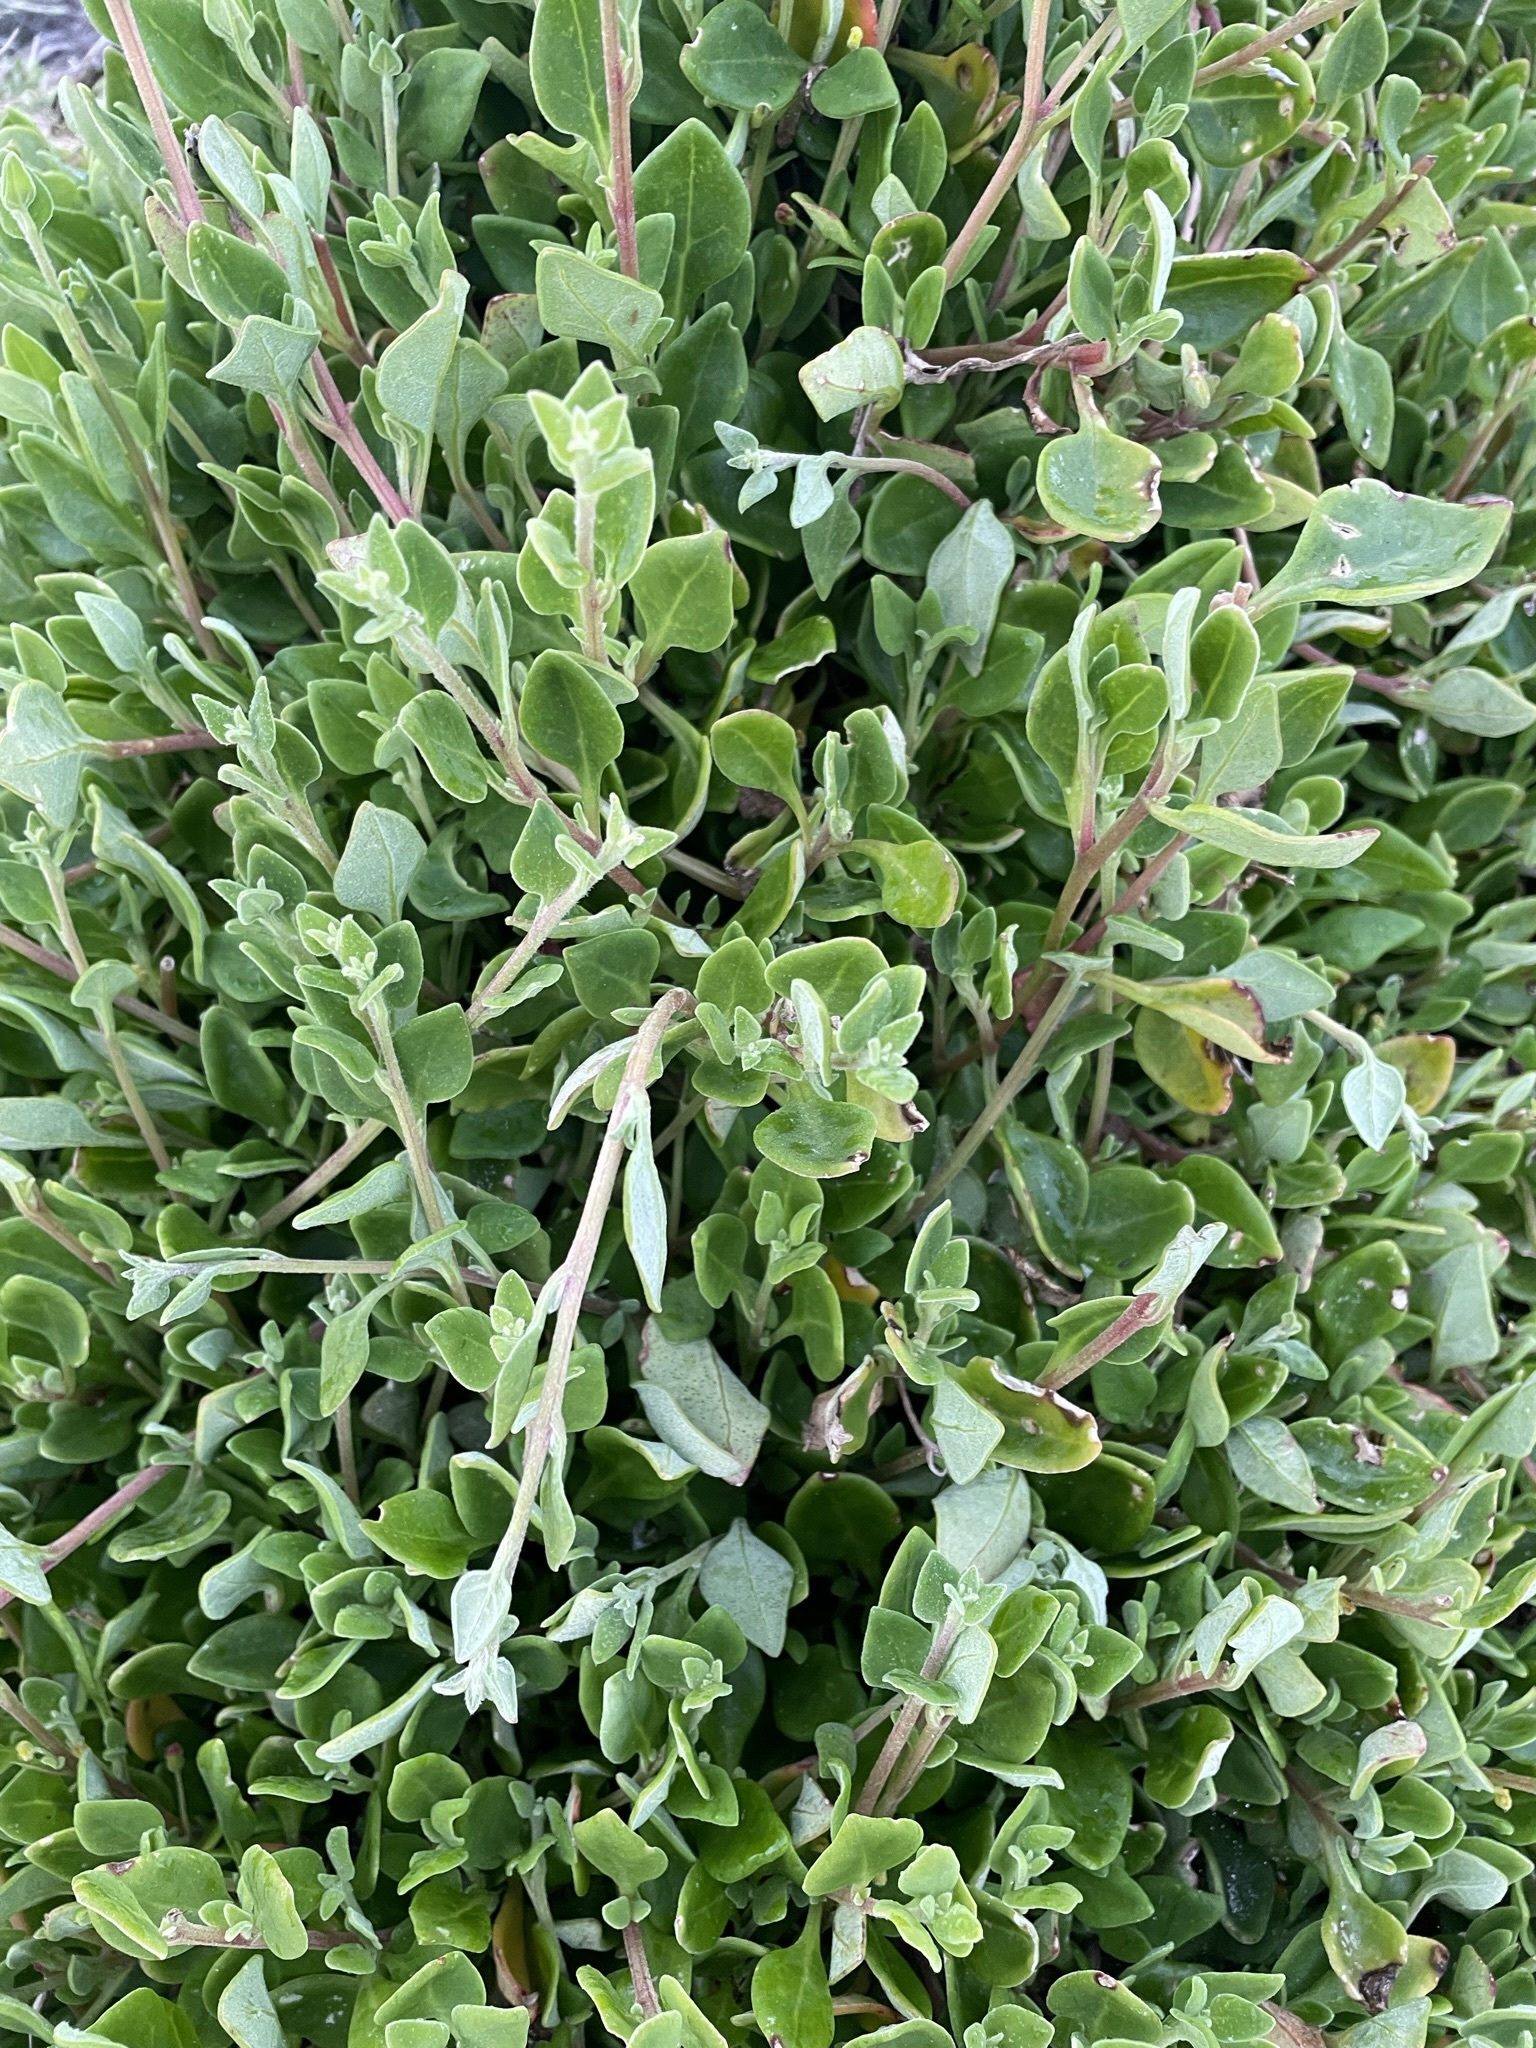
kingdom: Plantae
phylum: Tracheophyta
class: Magnoliopsida
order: Caryophyllales
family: Amaranthaceae
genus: Chenopodium
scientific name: Chenopodium candolleanum
